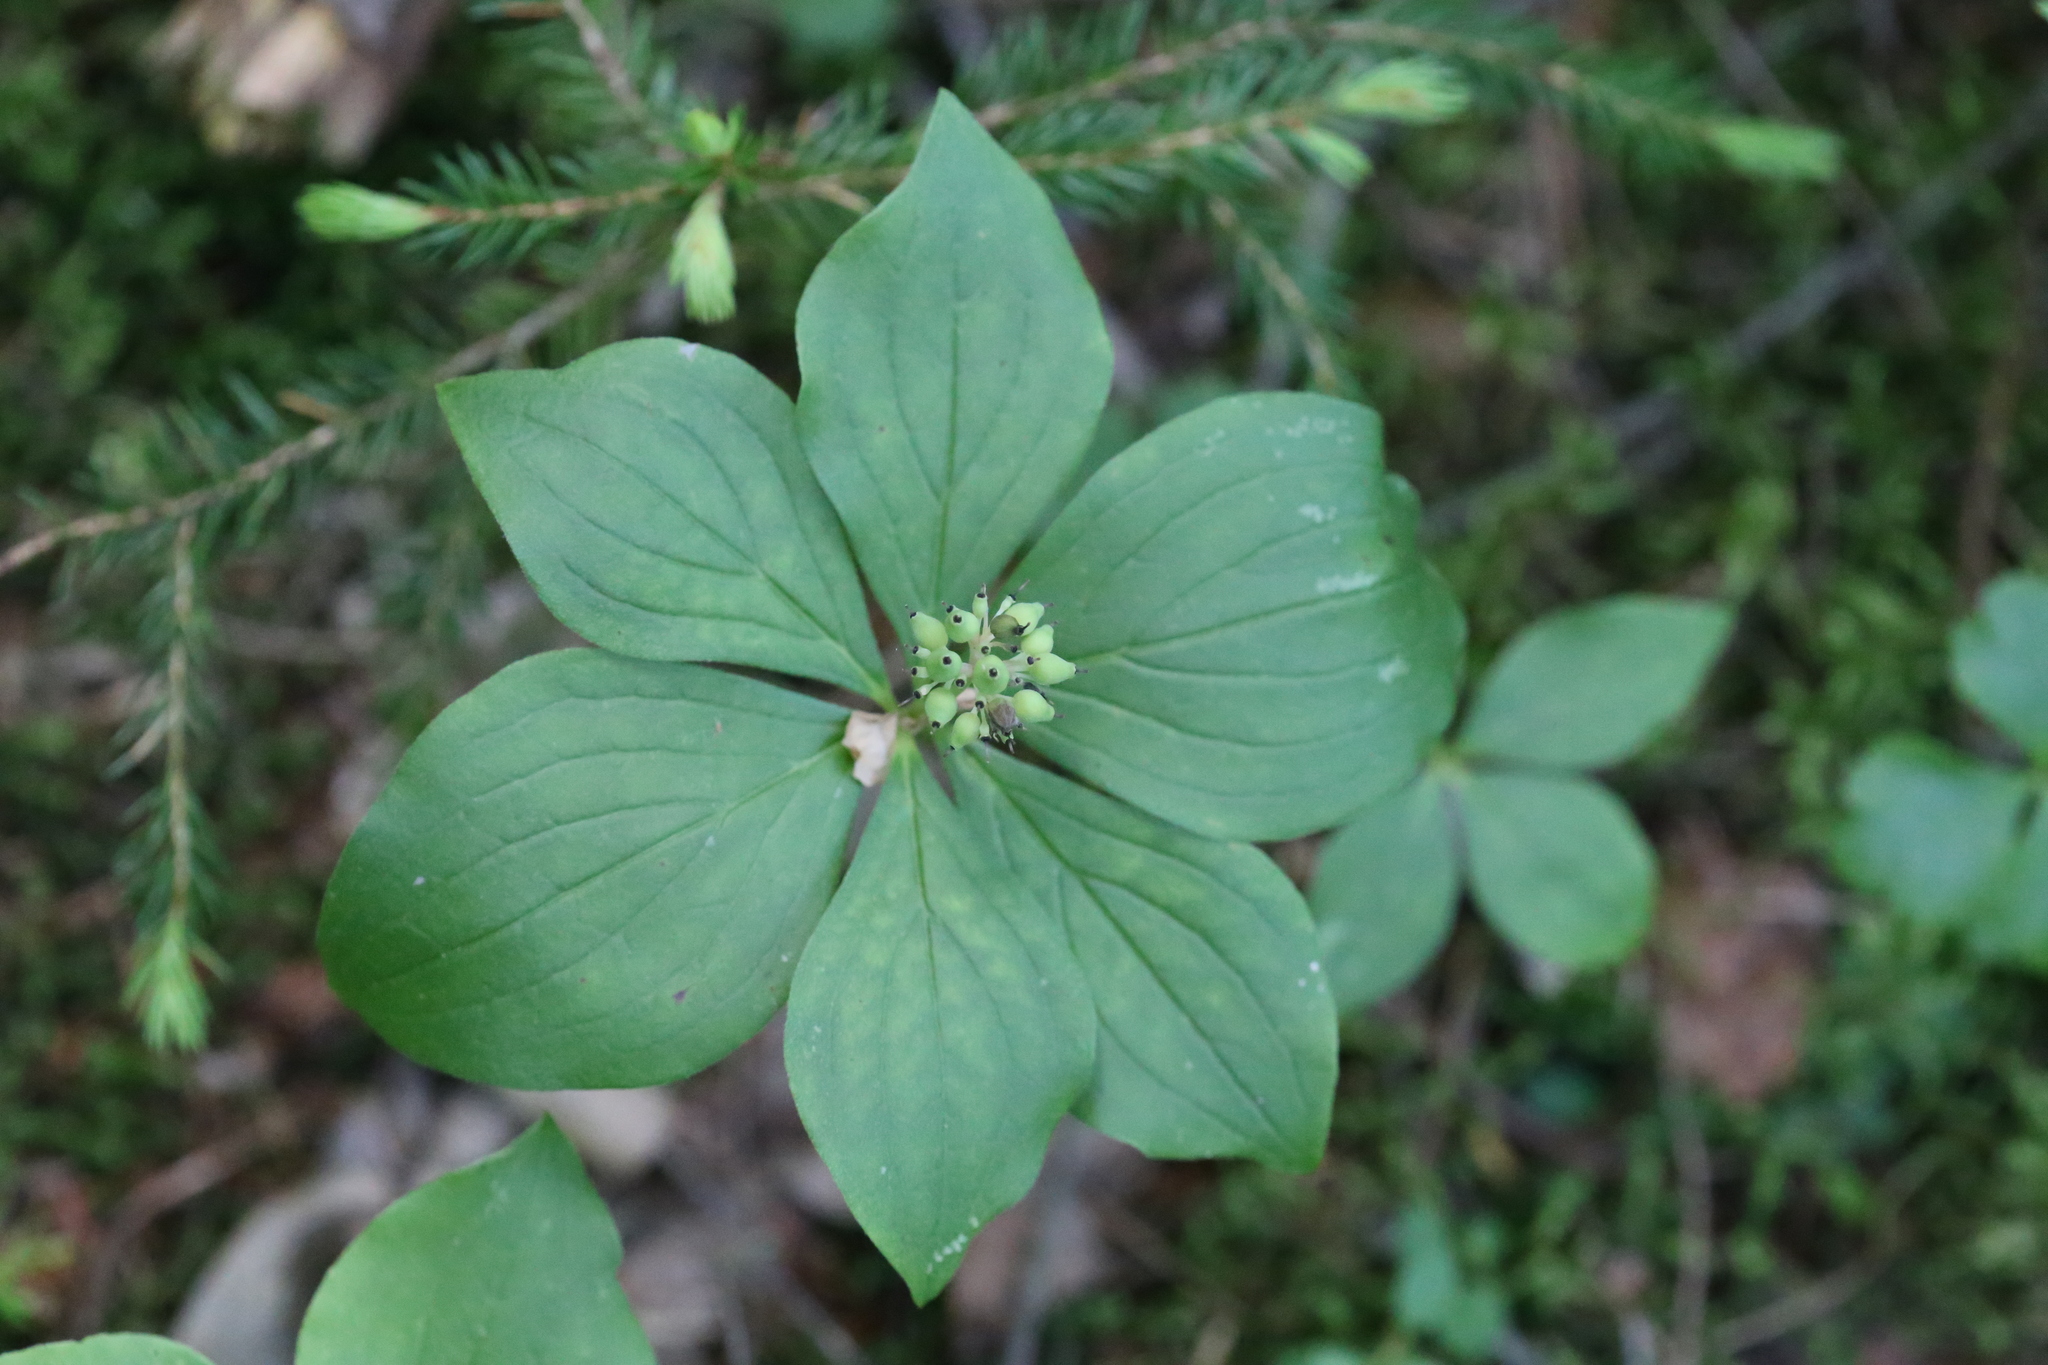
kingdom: Plantae
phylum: Tracheophyta
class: Magnoliopsida
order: Cornales
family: Cornaceae
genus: Cornus
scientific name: Cornus canadensis
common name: Creeping dogwood
